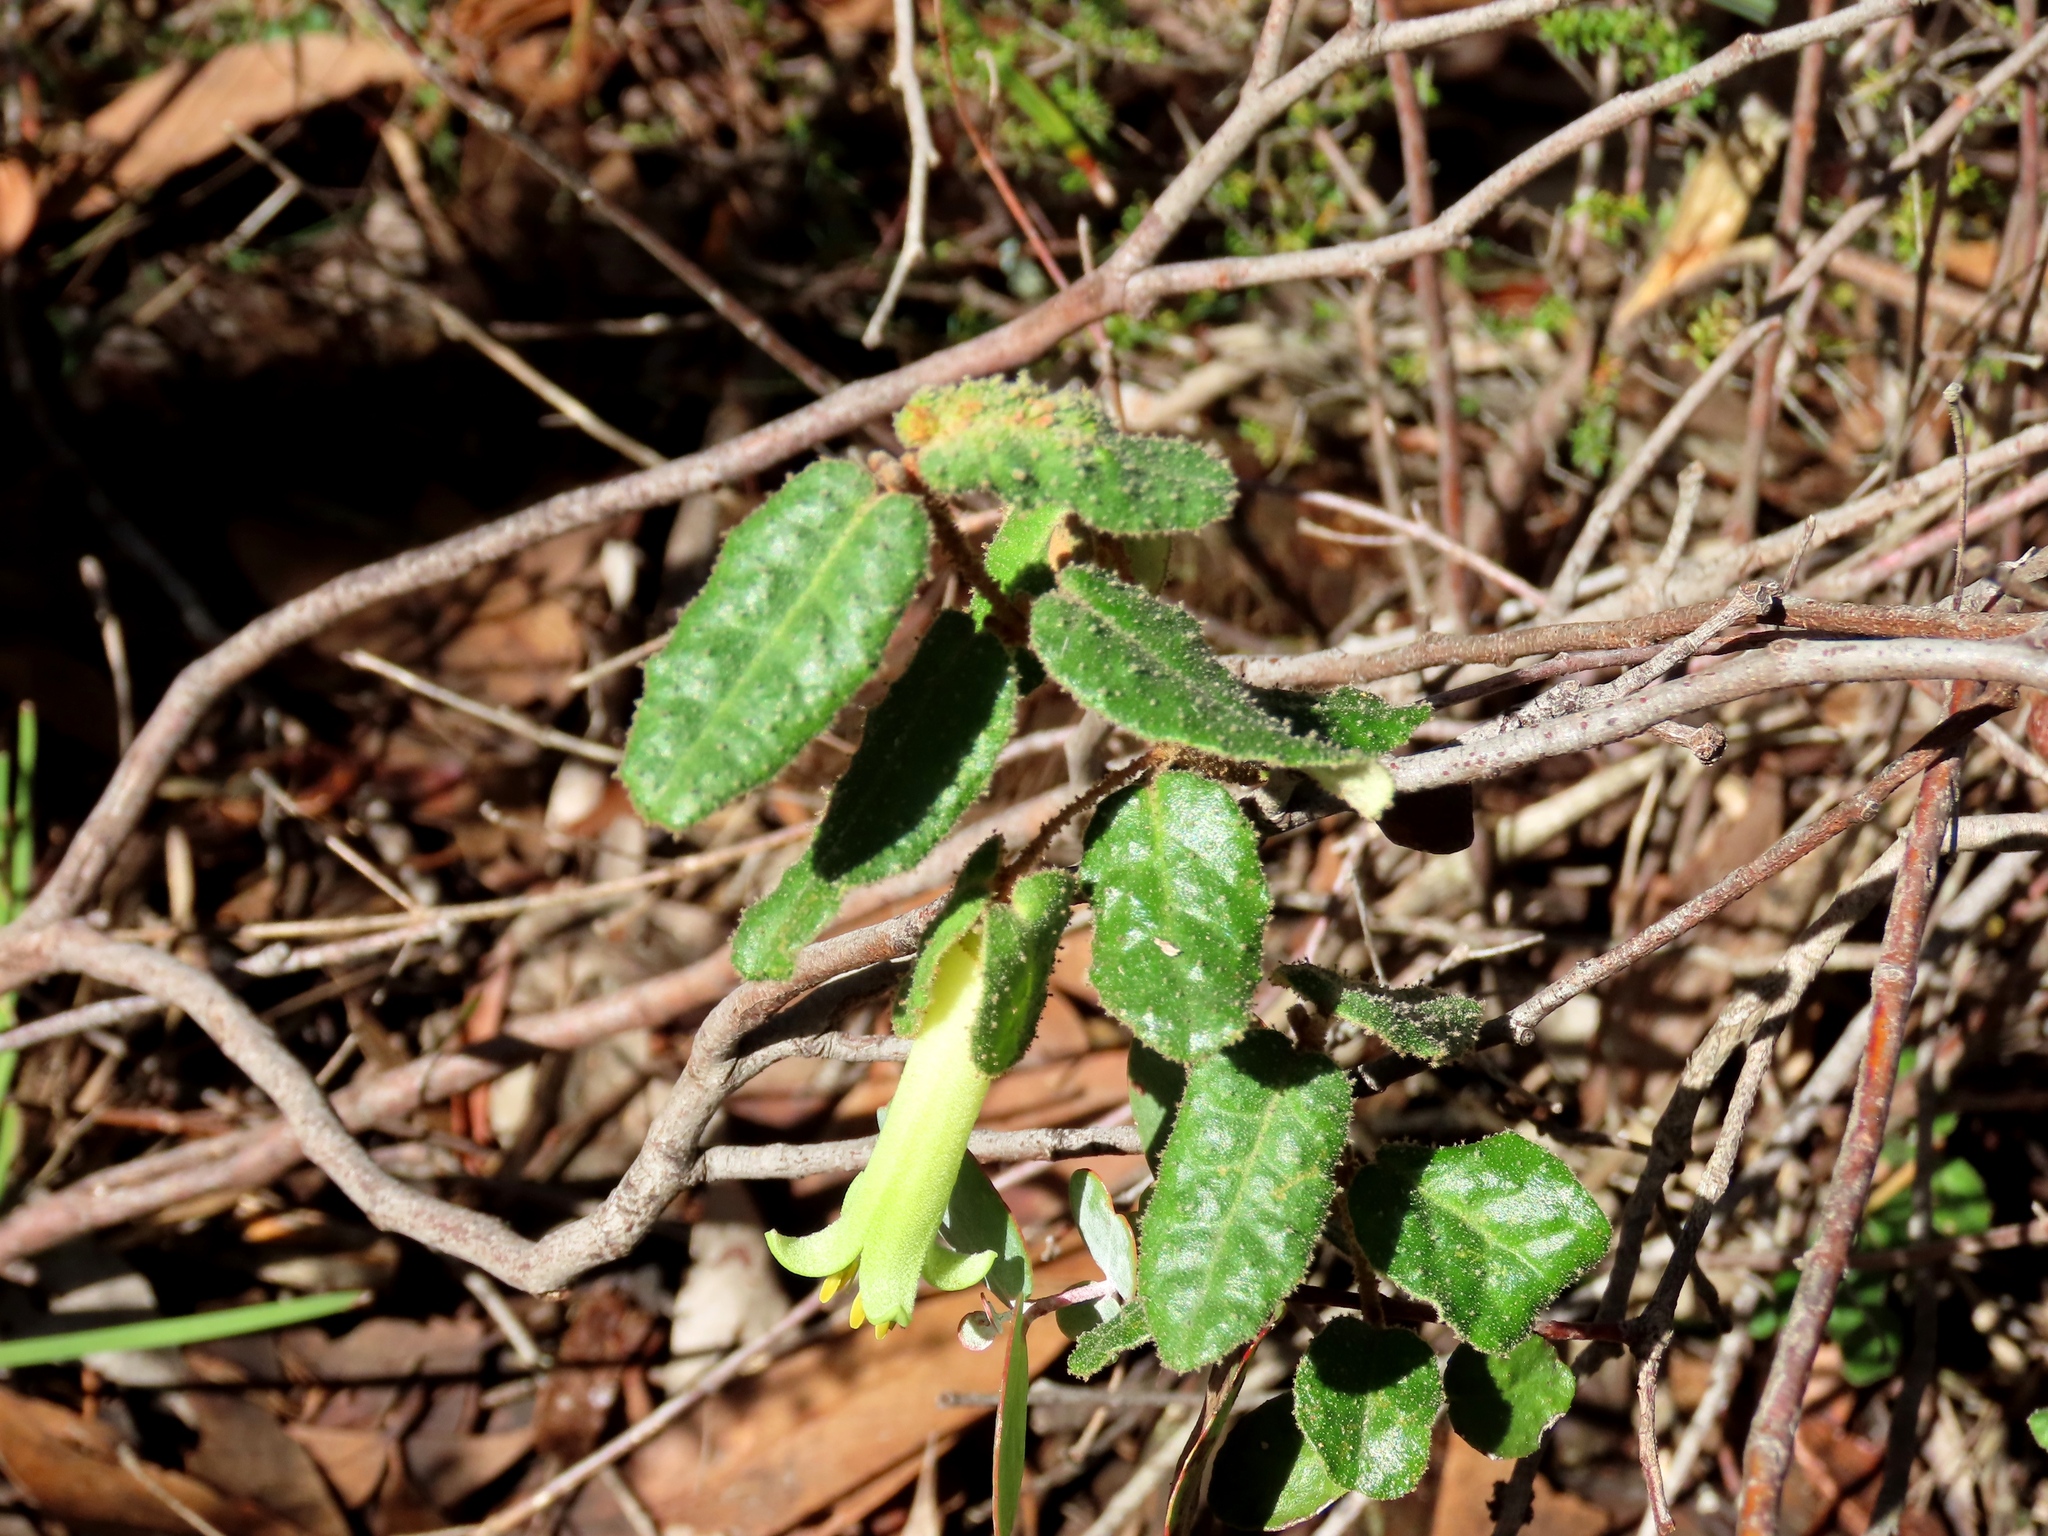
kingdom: Plantae
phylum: Tracheophyta
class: Magnoliopsida
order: Sapindales
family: Rutaceae
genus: Correa
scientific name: Correa reflexa
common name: Common correa
